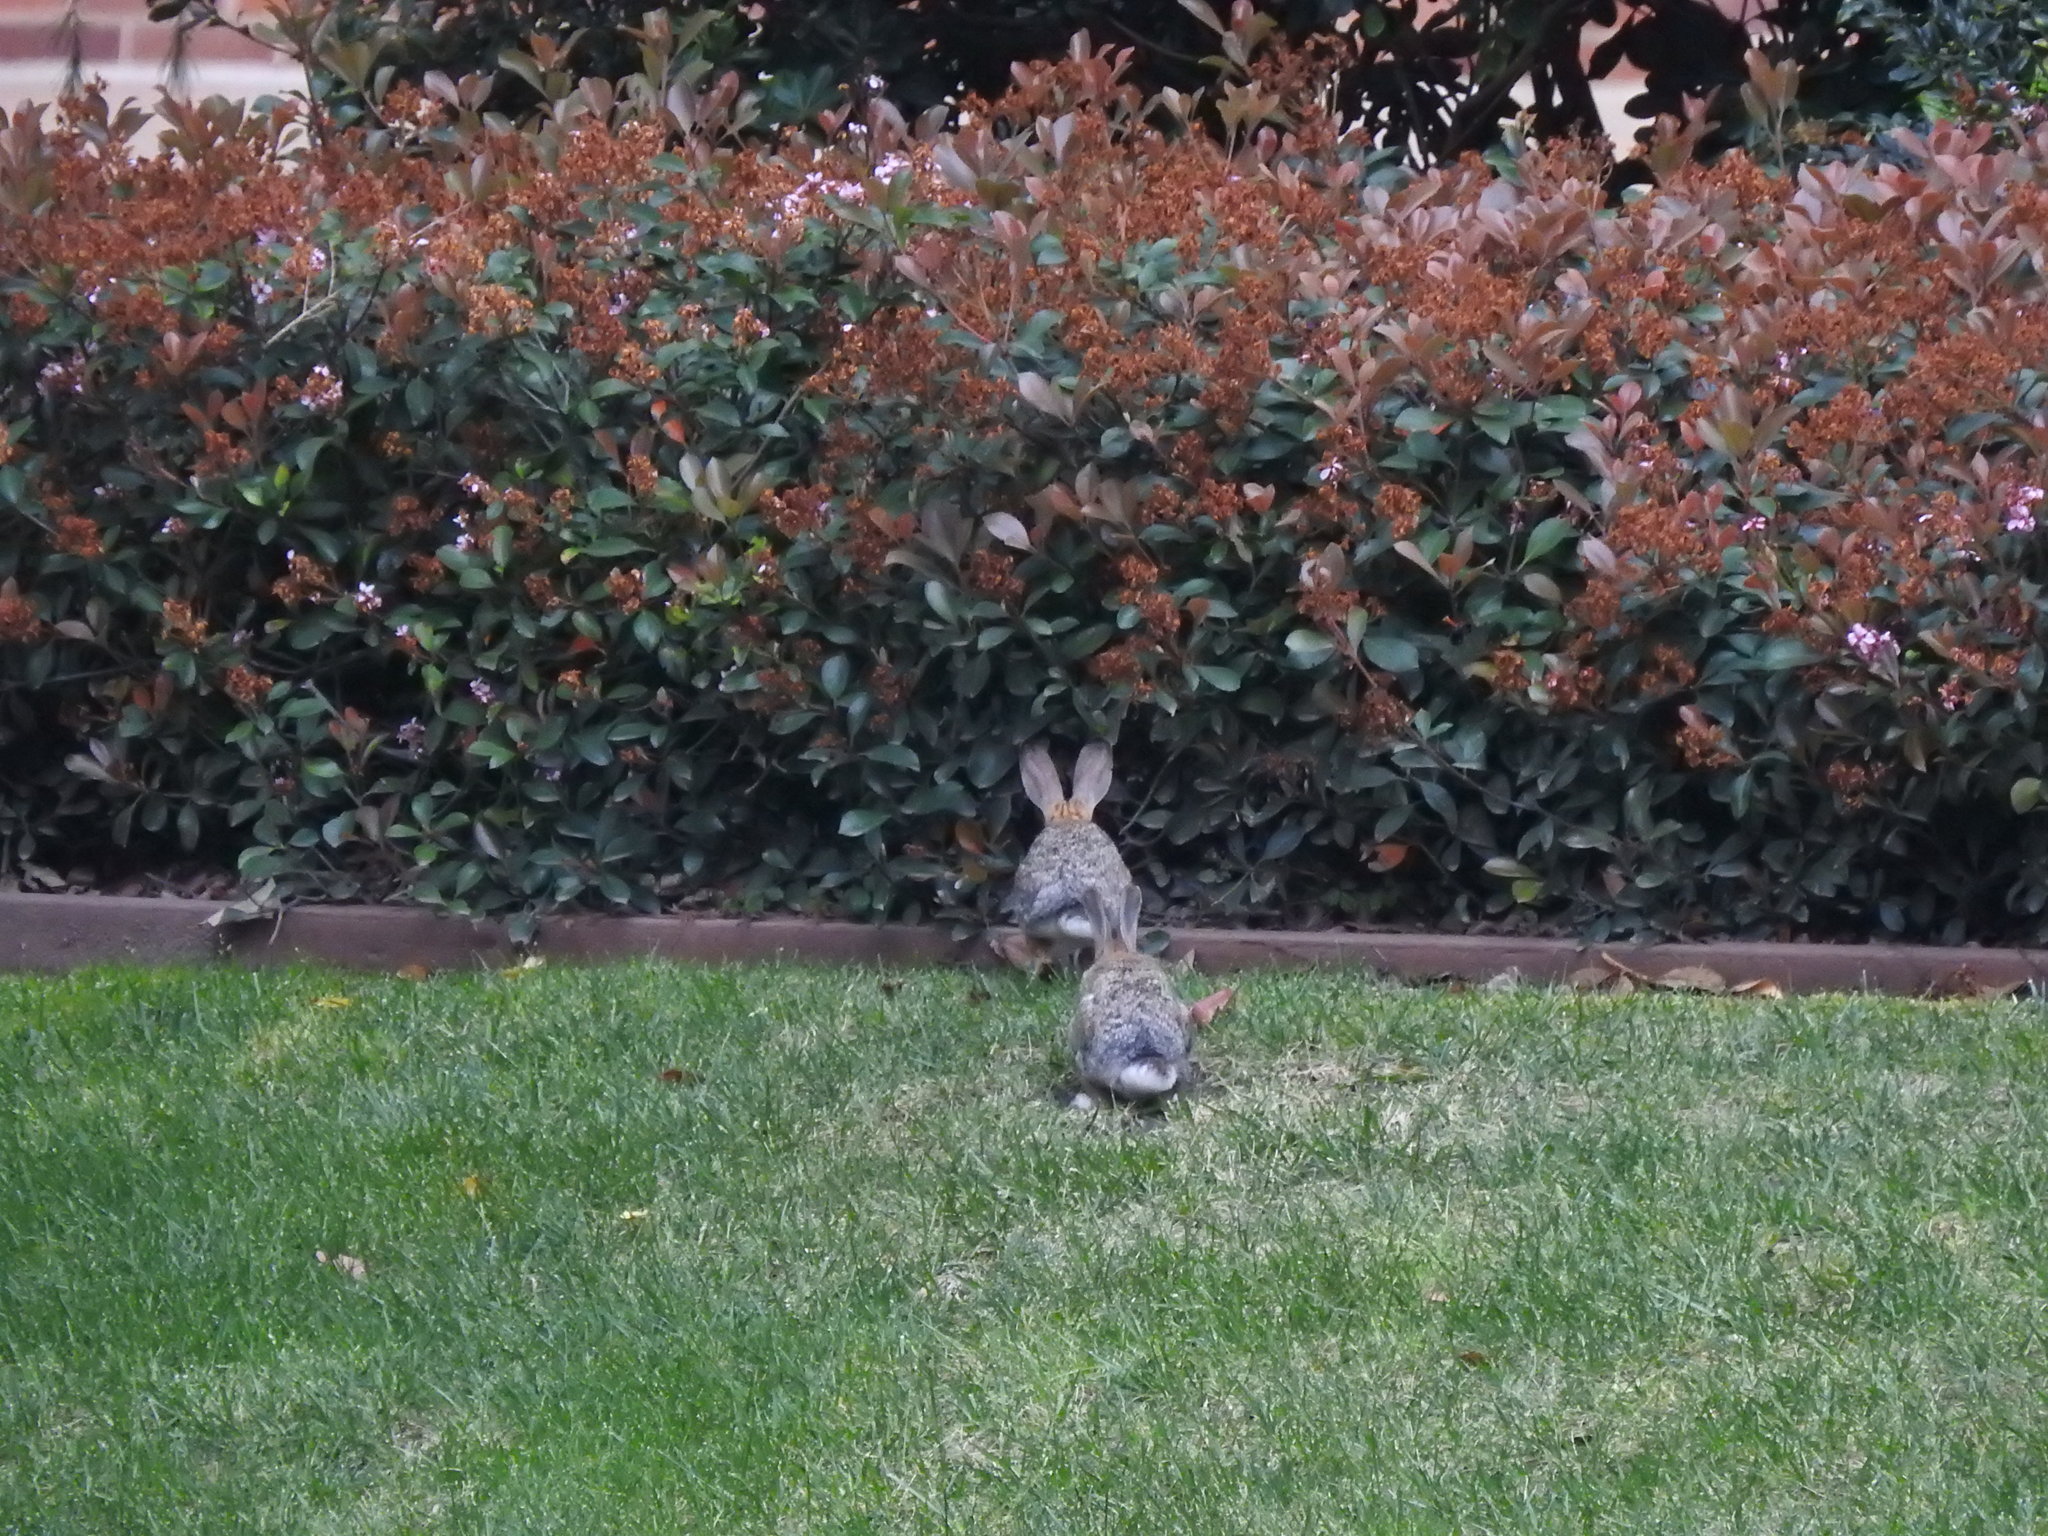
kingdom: Animalia
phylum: Chordata
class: Mammalia
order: Lagomorpha
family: Leporidae
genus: Sylvilagus
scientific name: Sylvilagus audubonii
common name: Desert cottontail
